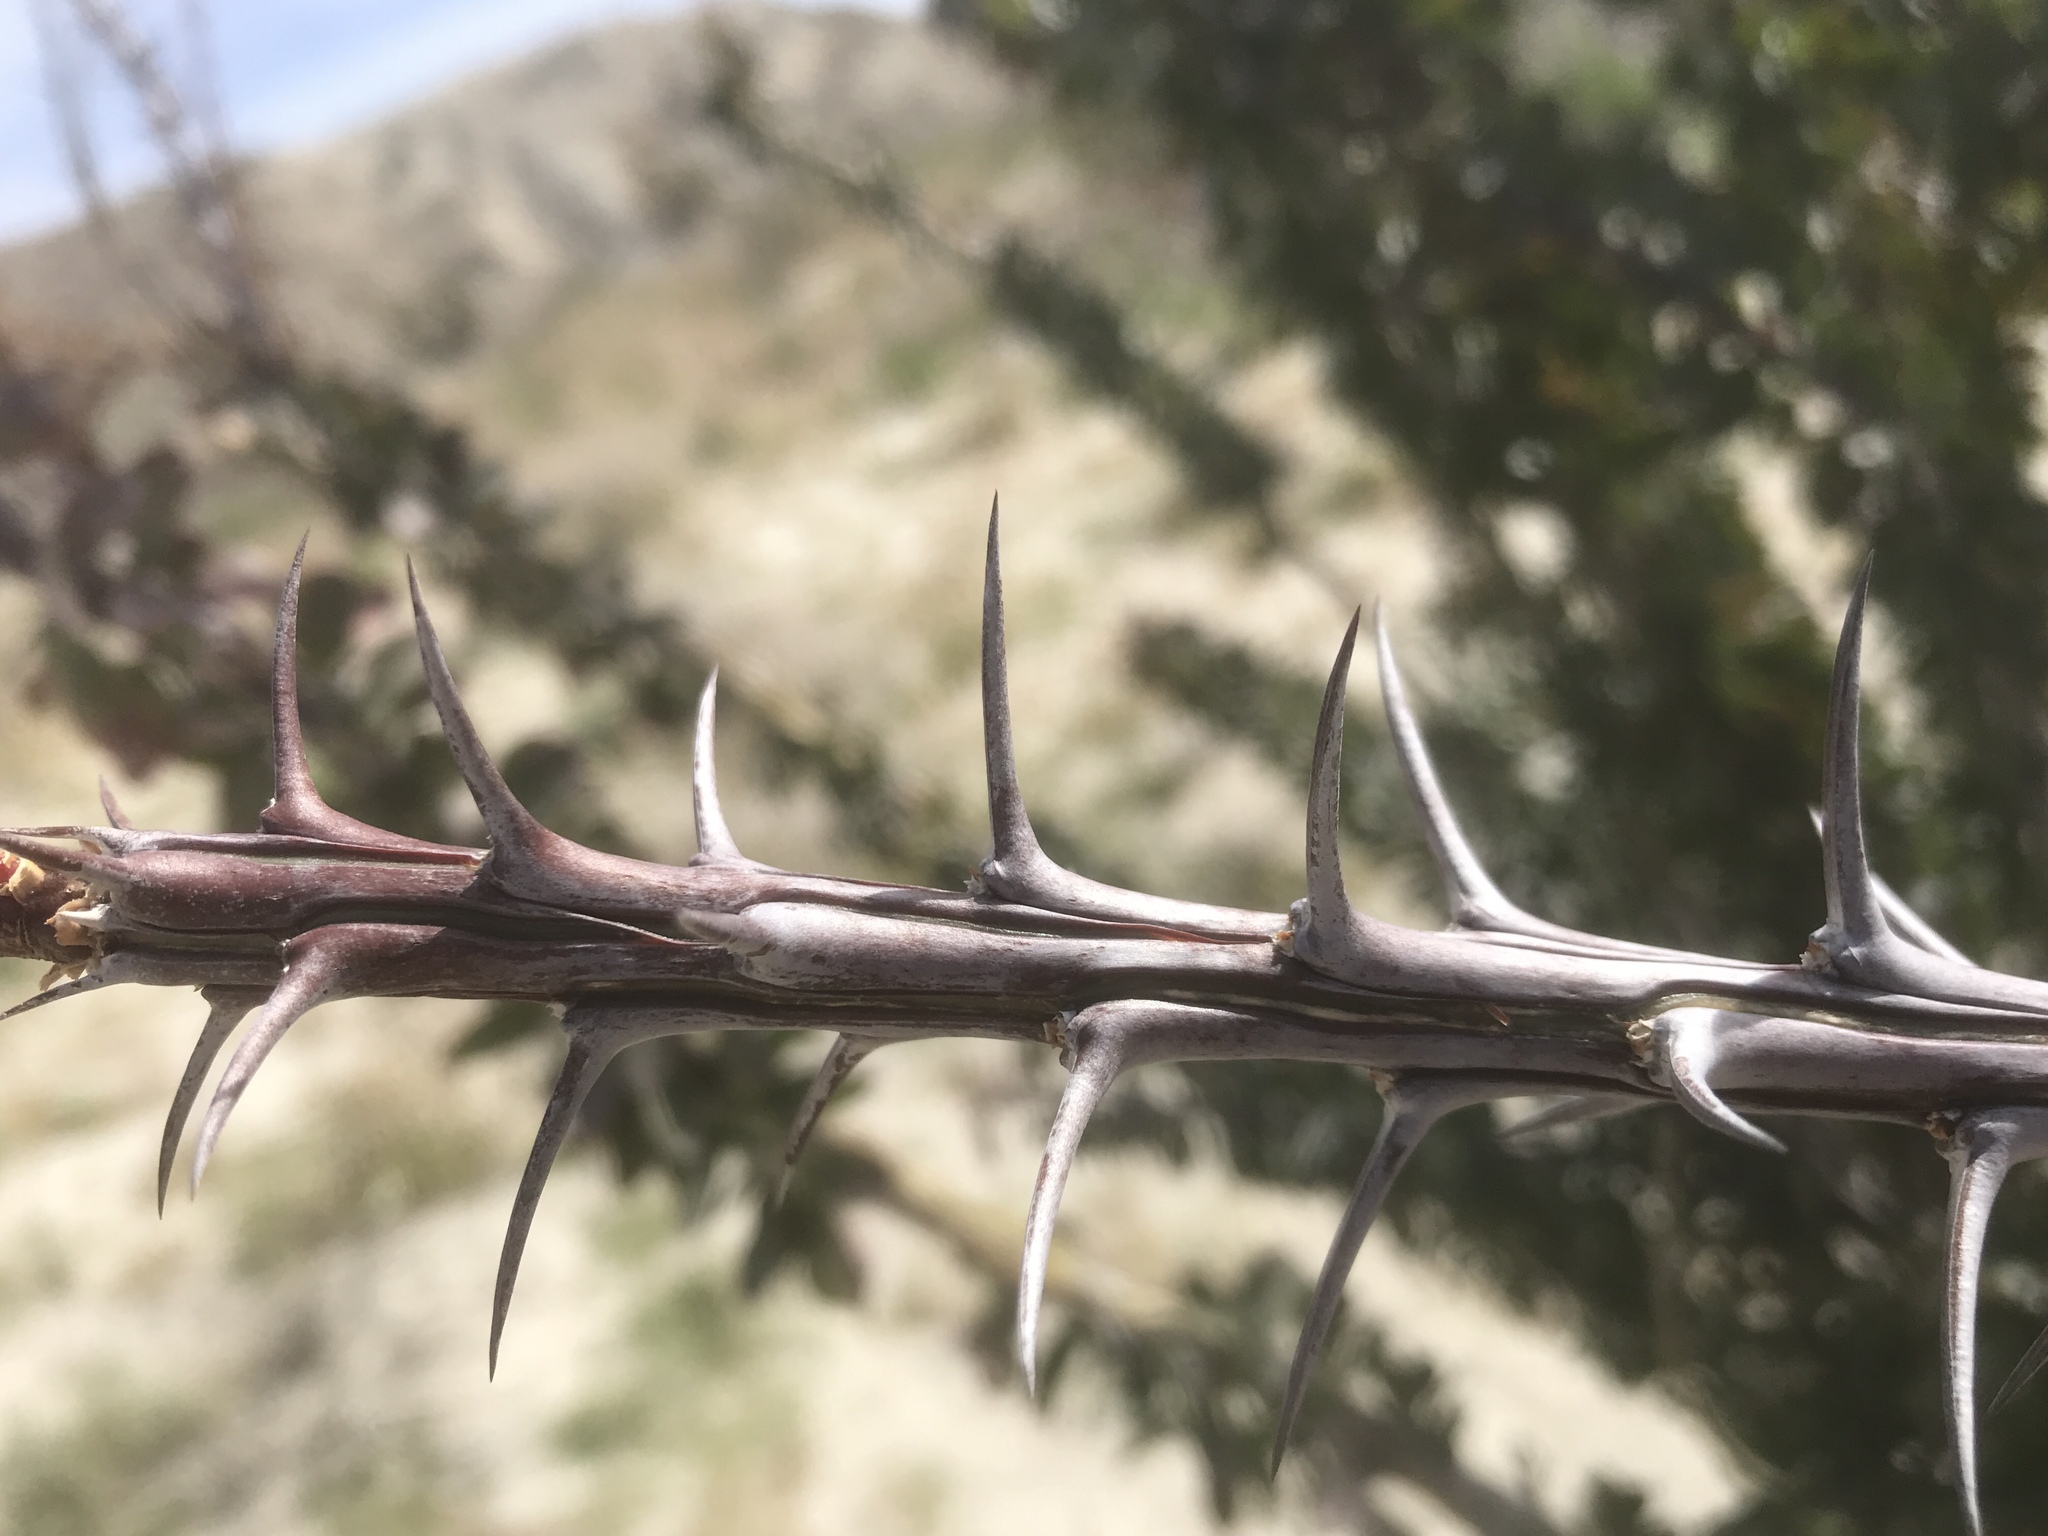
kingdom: Plantae
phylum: Tracheophyta
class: Magnoliopsida
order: Ericales
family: Fouquieriaceae
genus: Fouquieria
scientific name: Fouquieria splendens
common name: Vine-cactus
